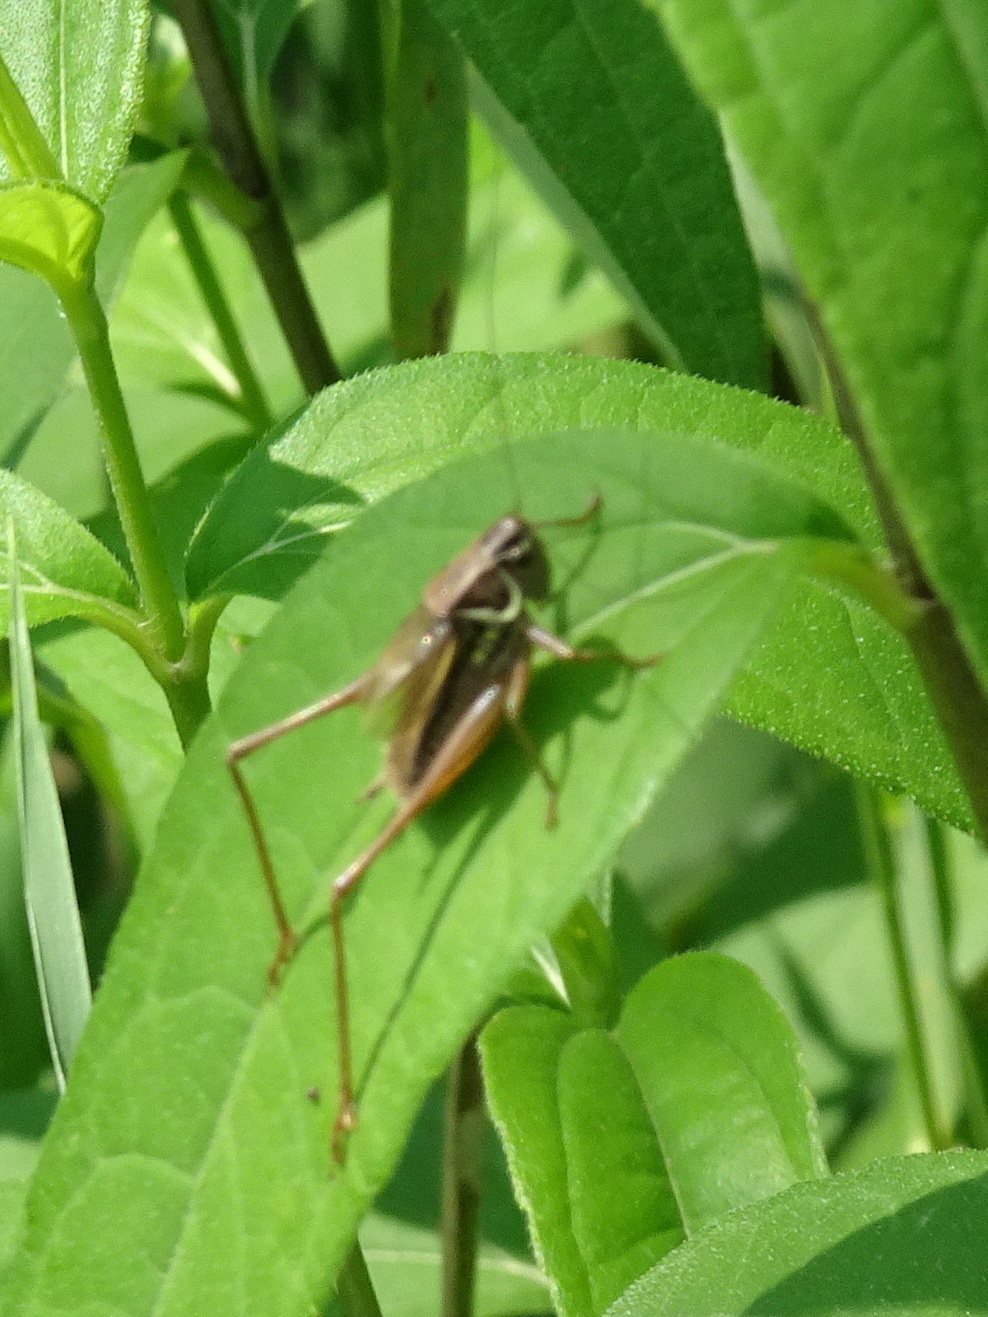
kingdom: Animalia
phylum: Arthropoda
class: Insecta
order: Orthoptera
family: Tettigoniidae
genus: Roeseliana
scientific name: Roeseliana roeselii
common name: Roesel's bush cricket
